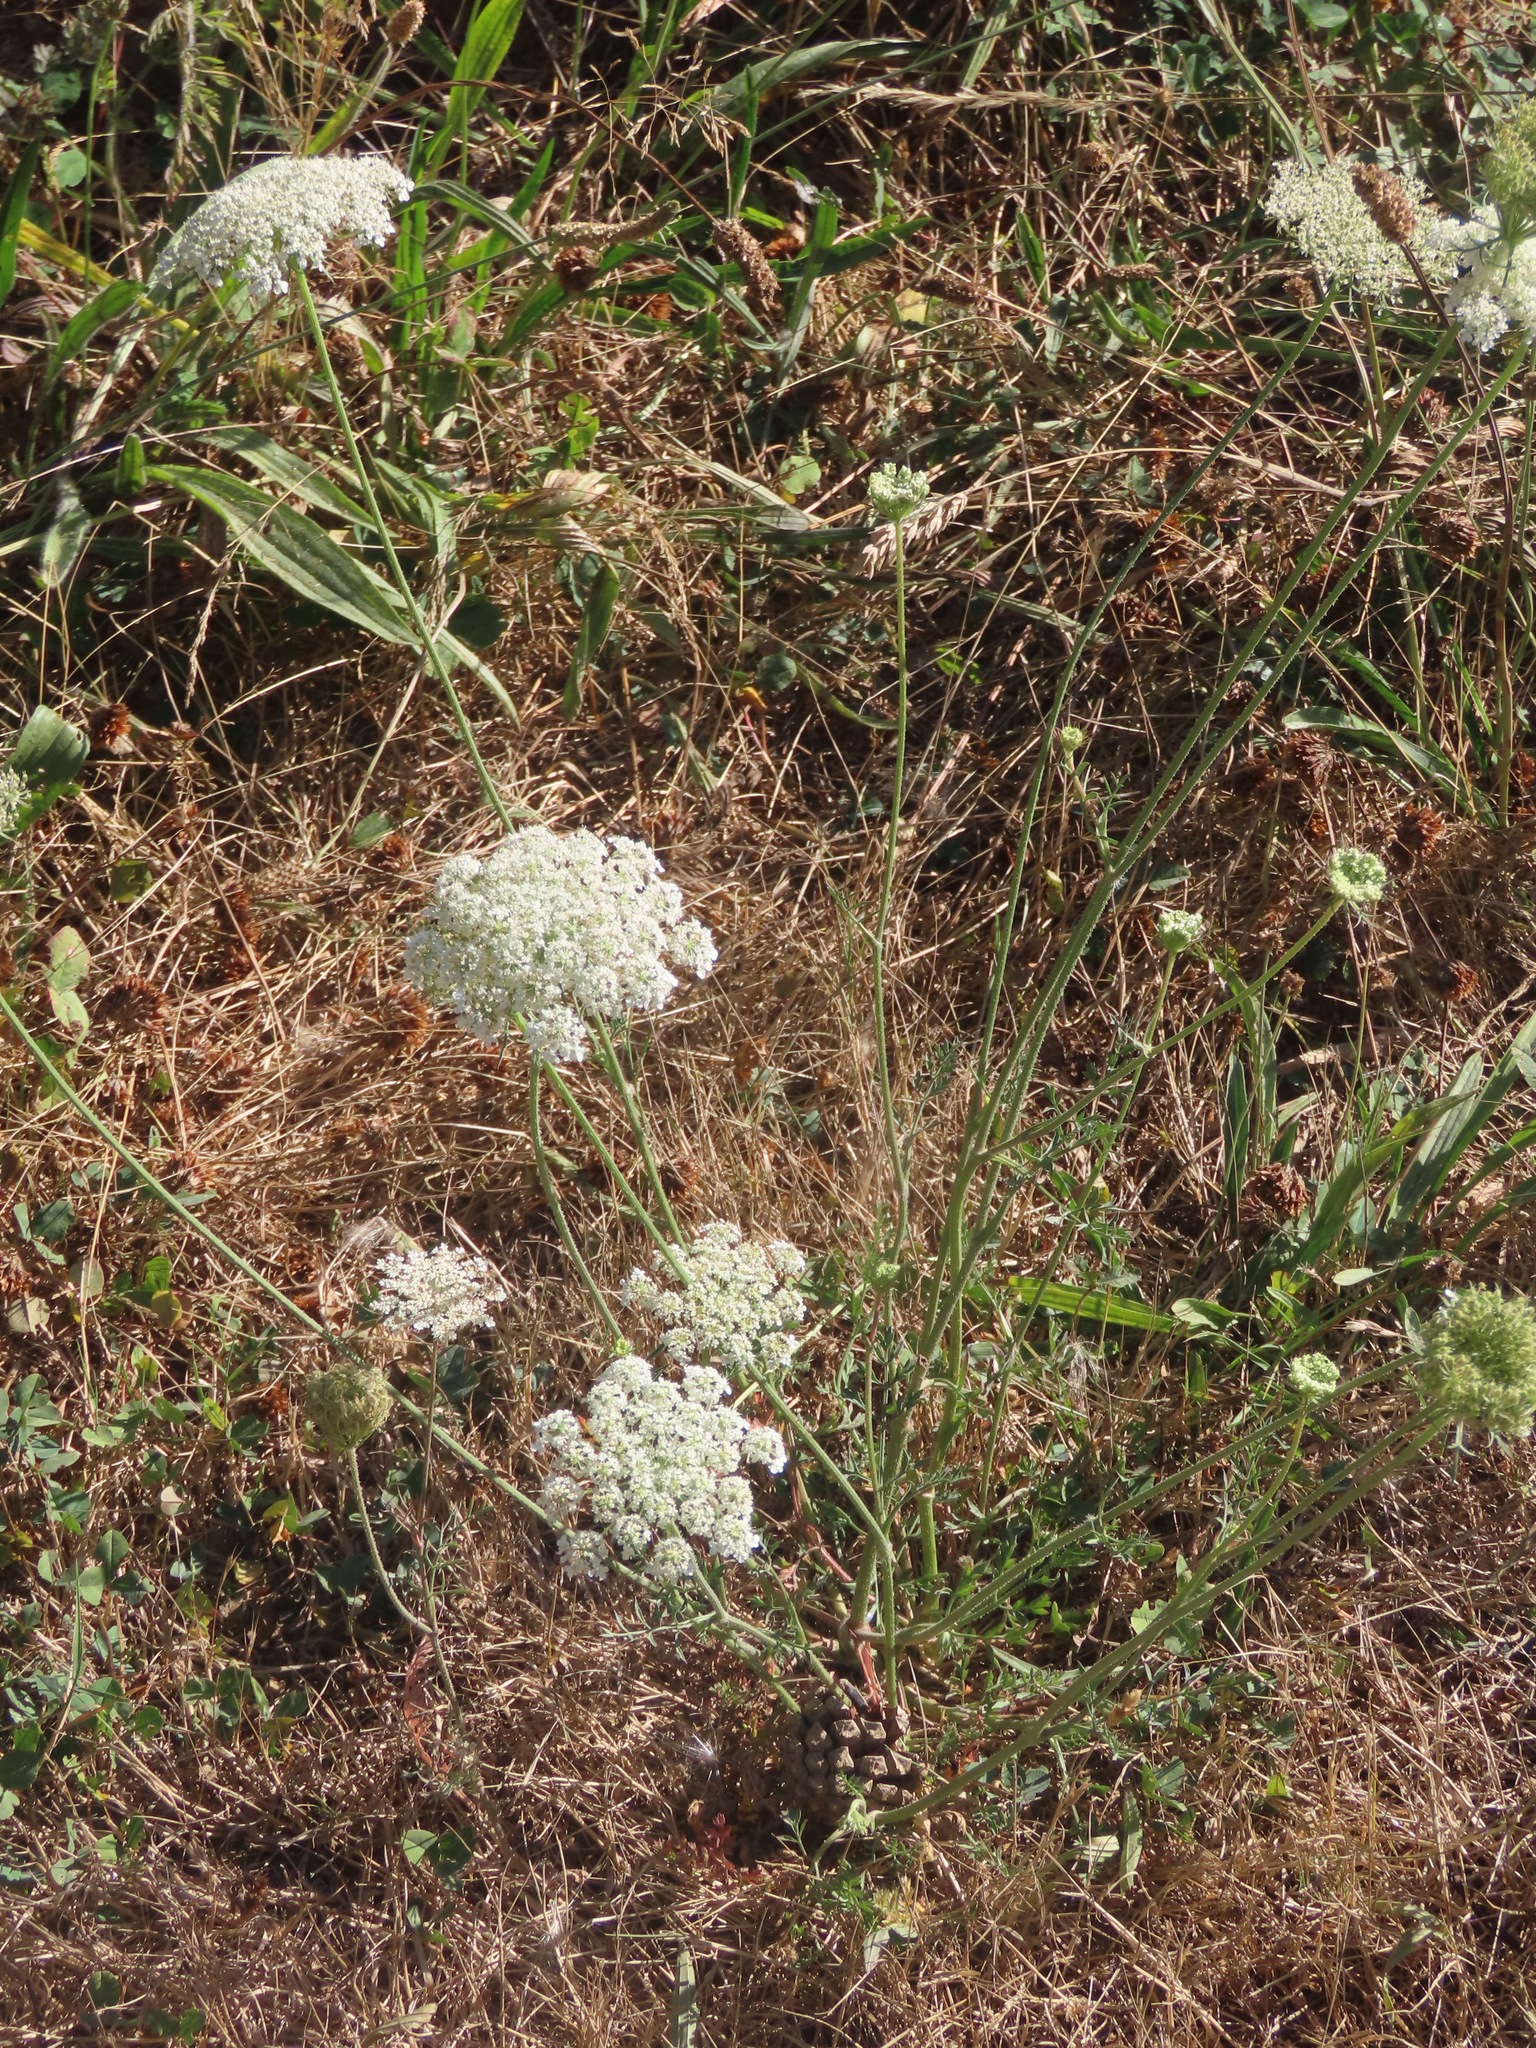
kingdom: Plantae
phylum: Tracheophyta
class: Magnoliopsida
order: Apiales
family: Apiaceae
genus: Daucus
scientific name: Daucus carota
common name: Wild carrot
